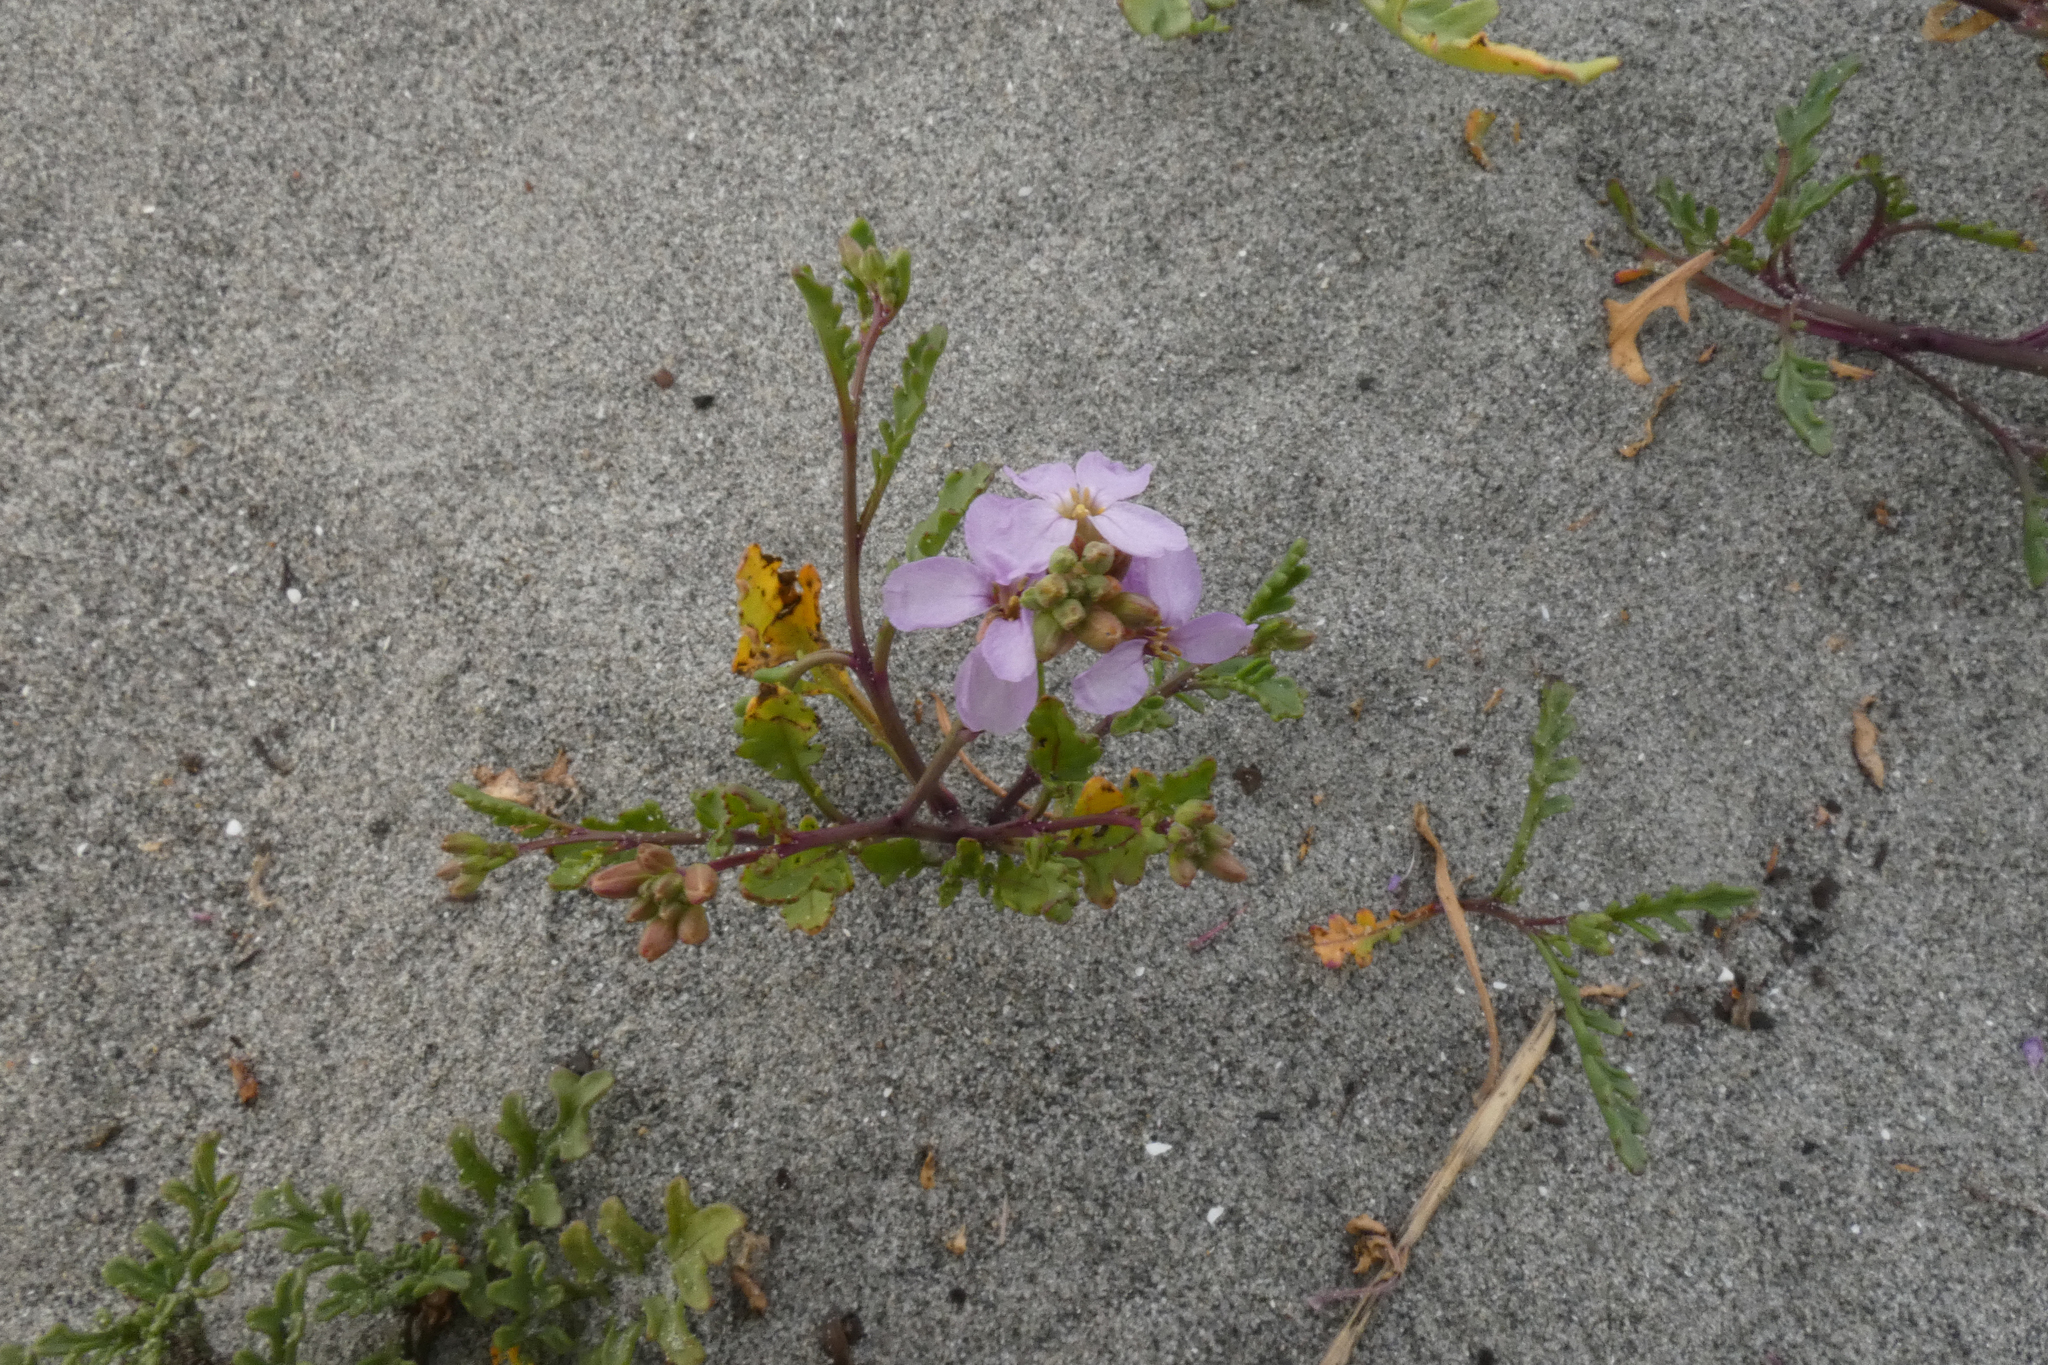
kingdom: Plantae
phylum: Tracheophyta
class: Magnoliopsida
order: Brassicales
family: Brassicaceae
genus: Cakile
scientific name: Cakile maritima
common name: Sea rocket
